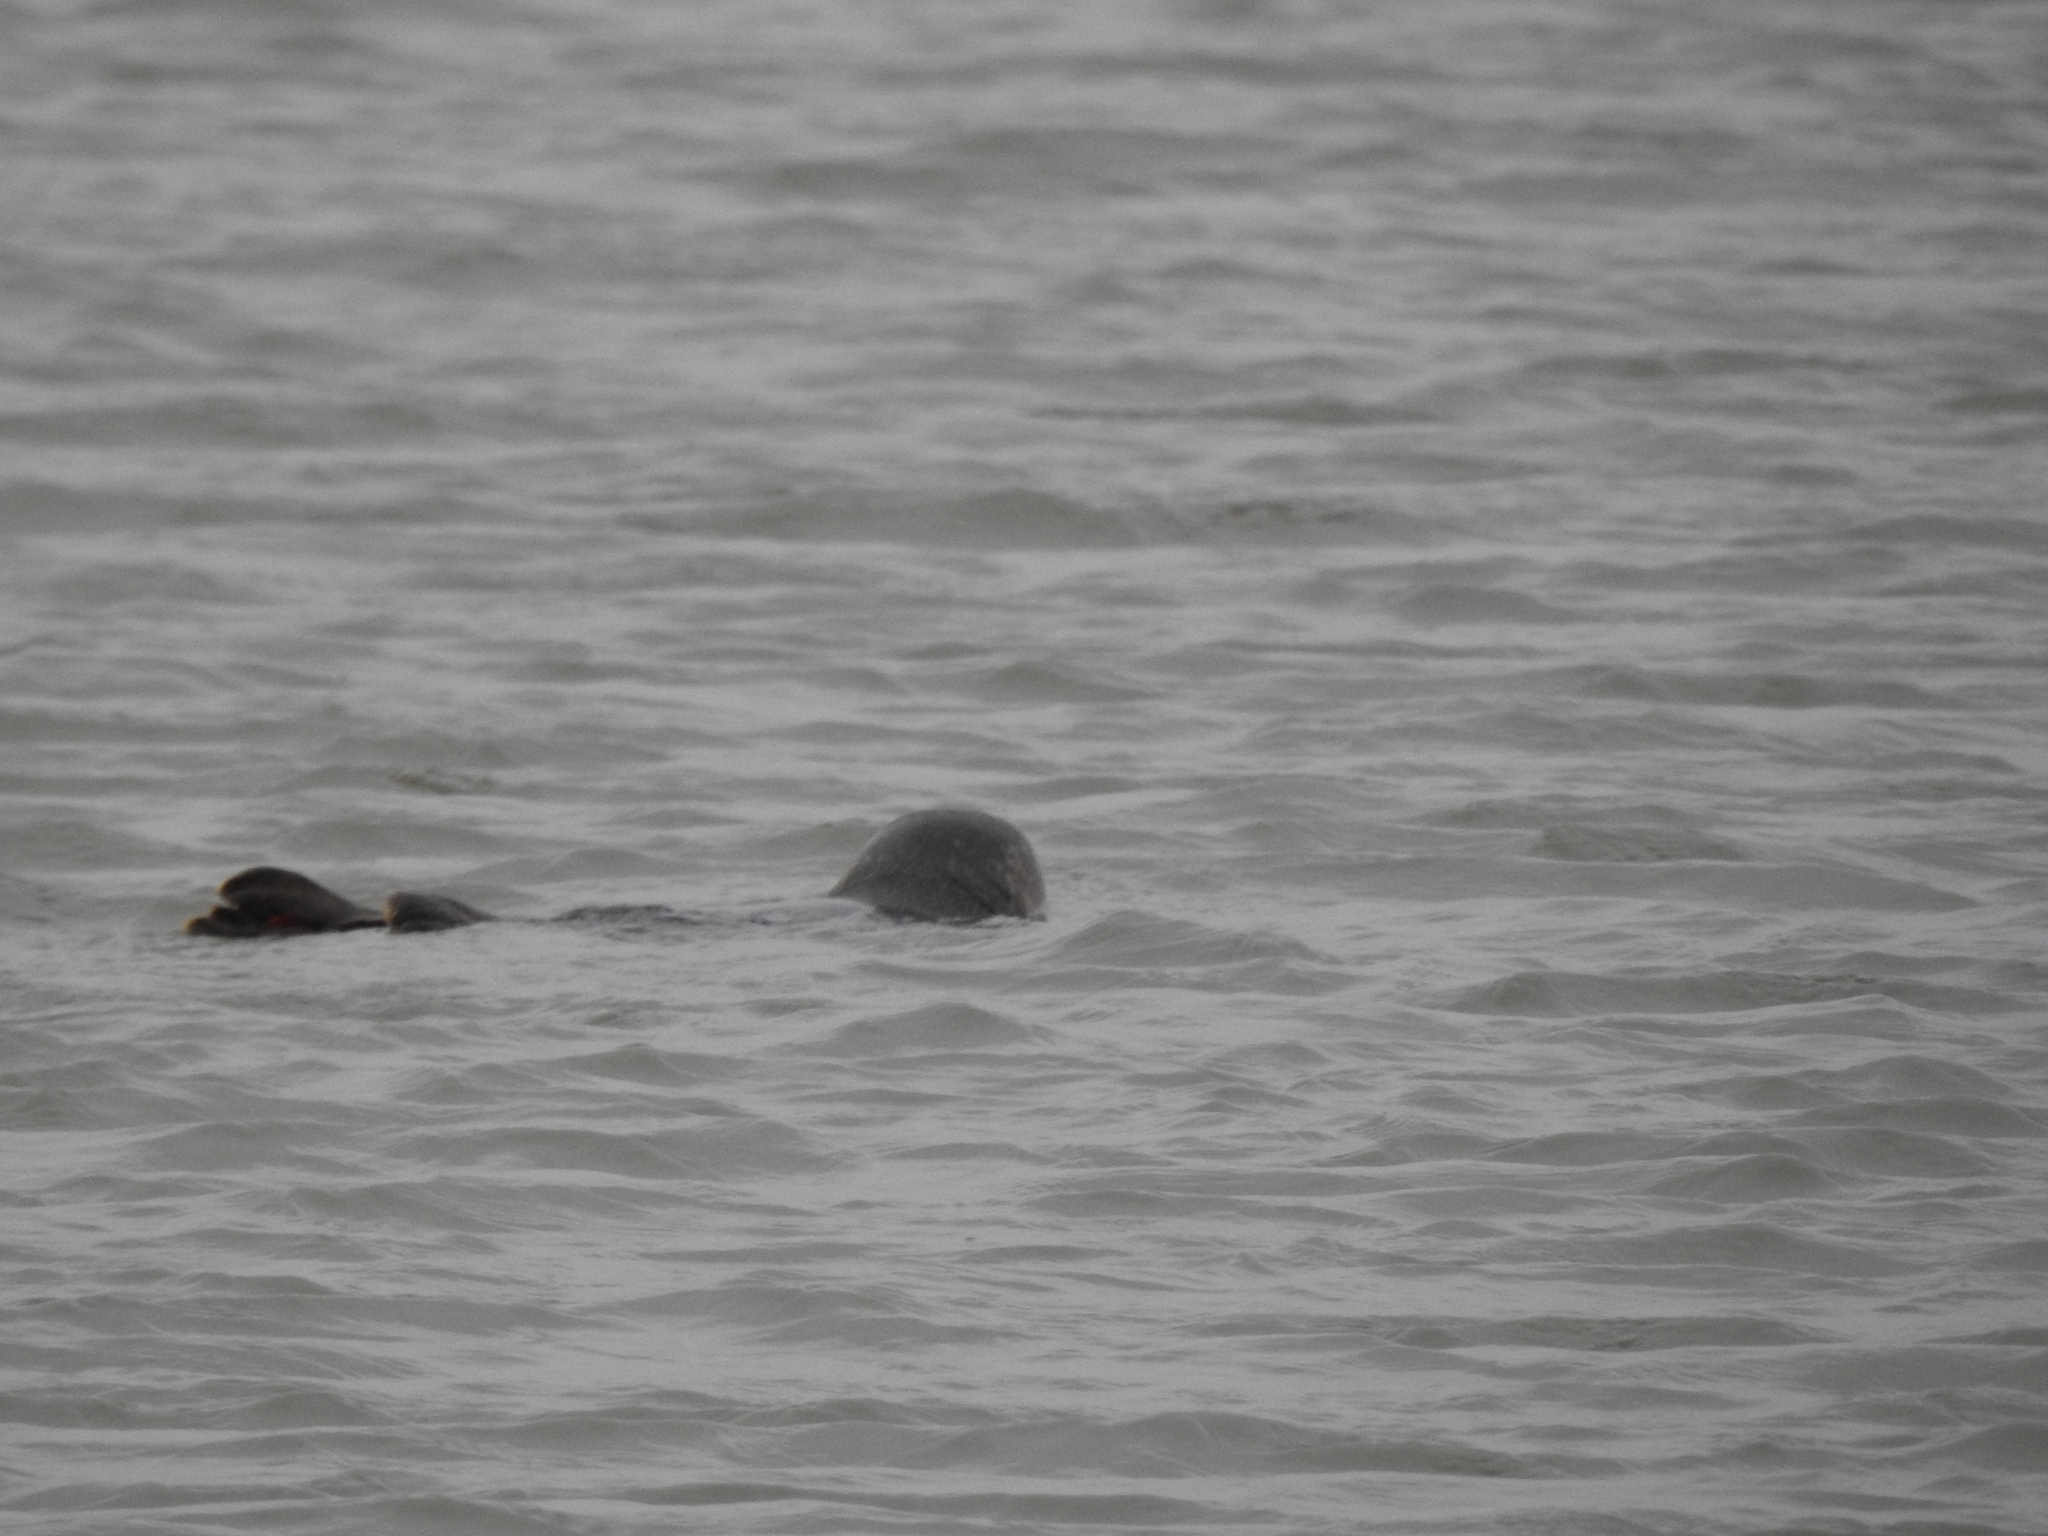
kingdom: Animalia
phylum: Chordata
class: Mammalia
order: Carnivora
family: Phocidae
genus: Phoca
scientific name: Phoca vitulina
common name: Harbor seal
